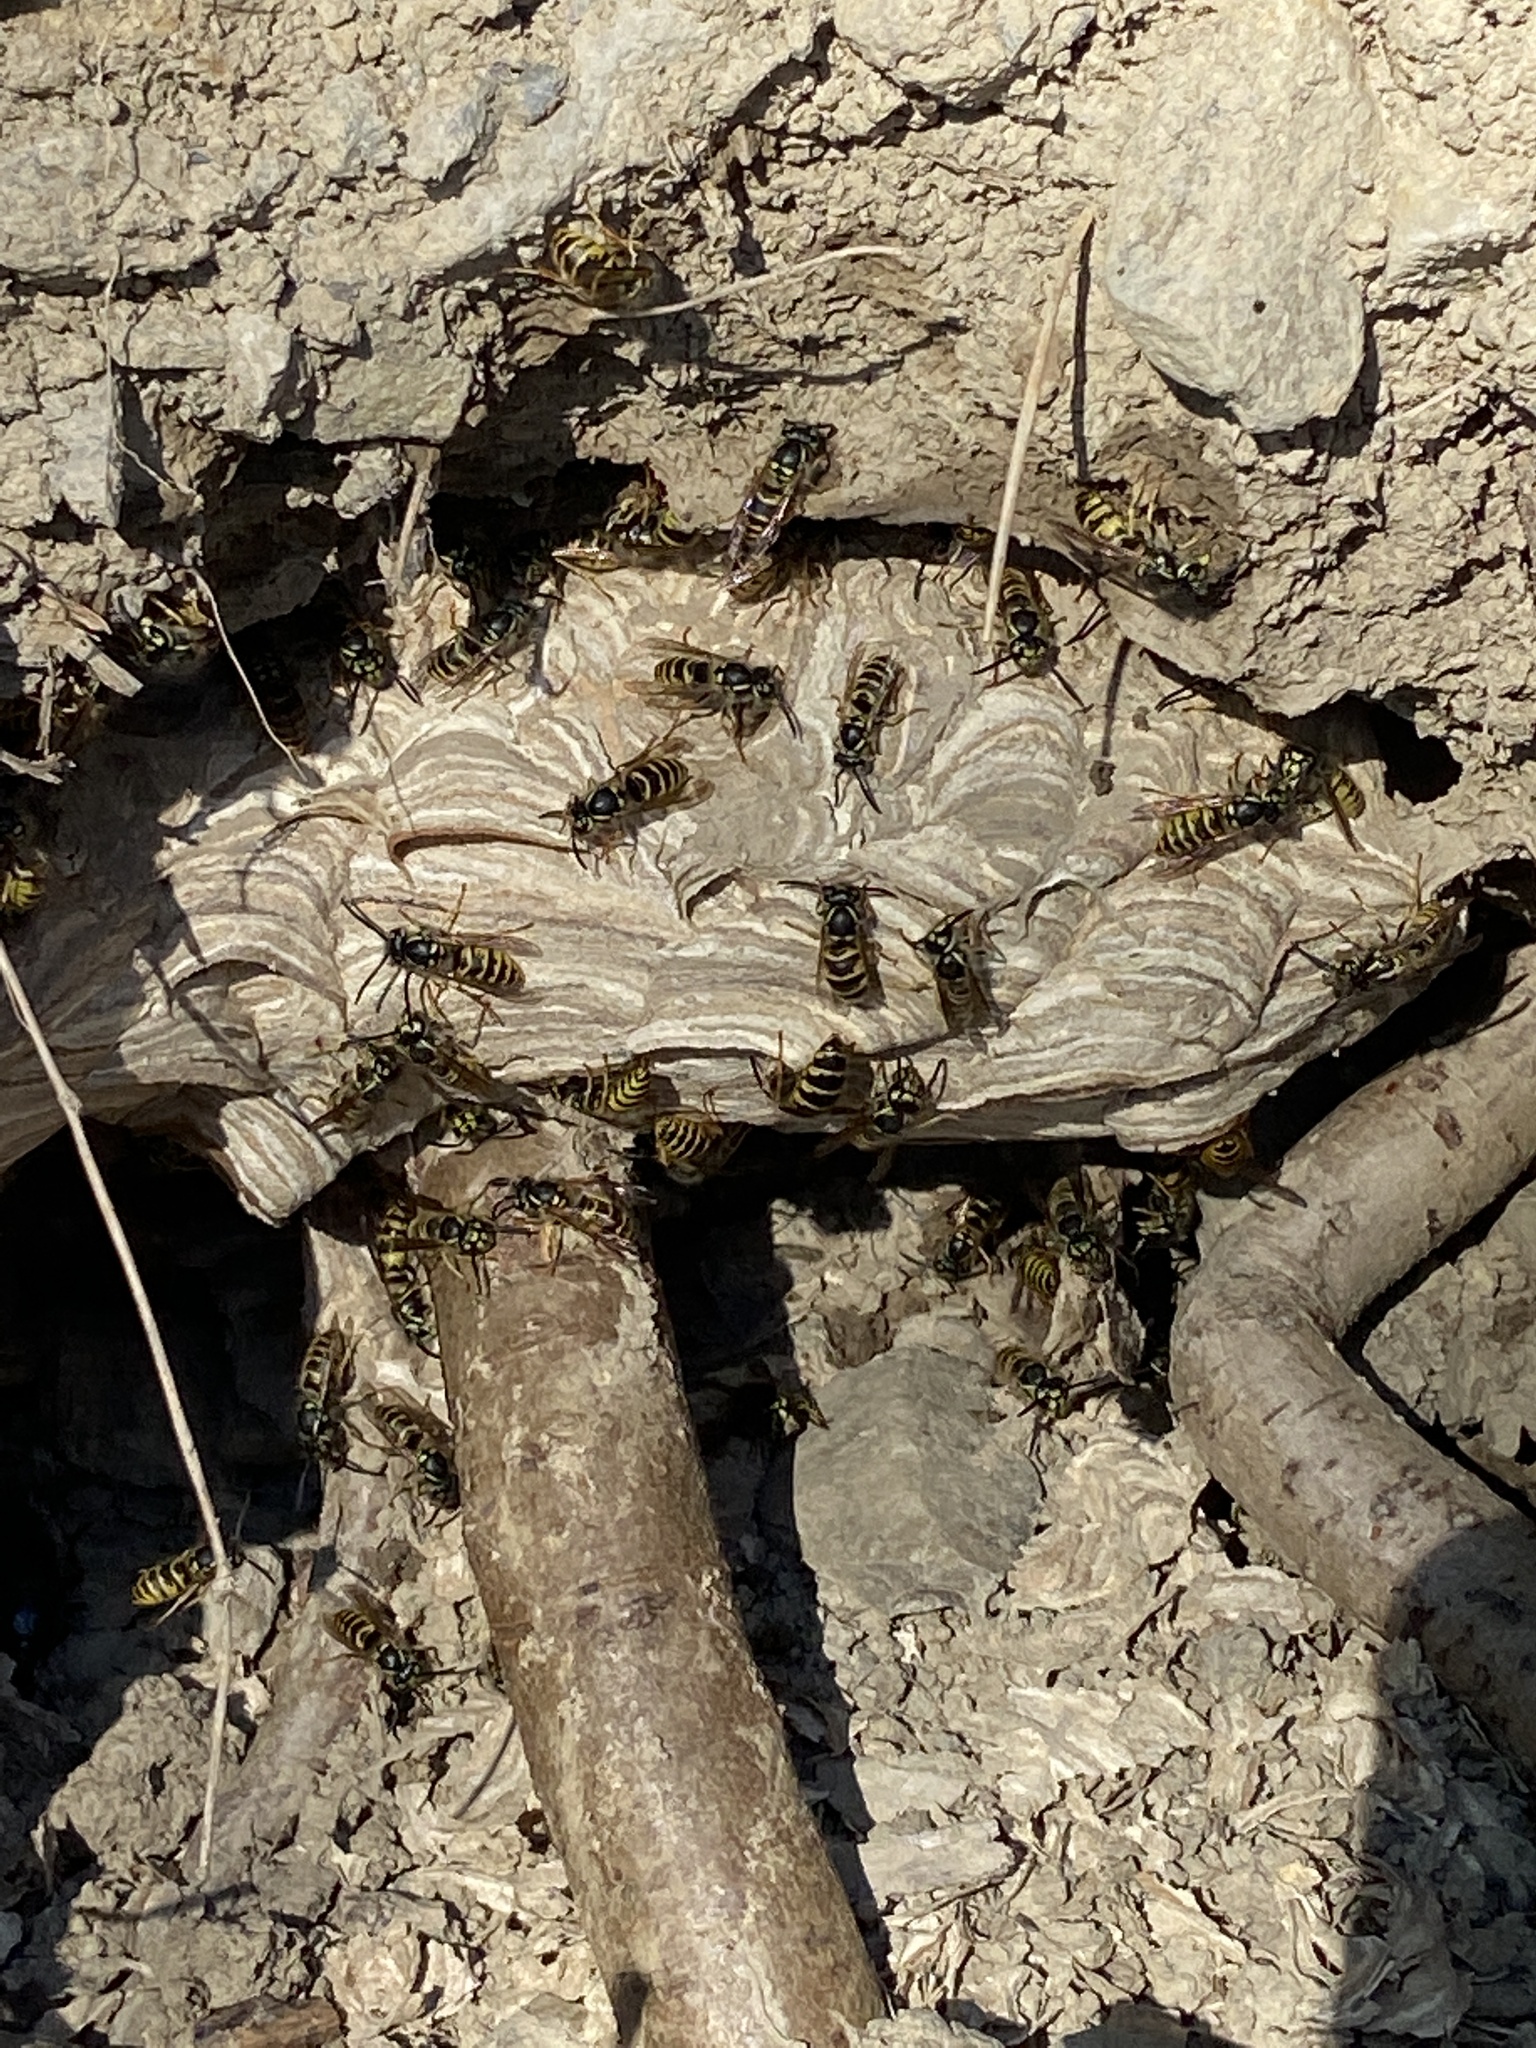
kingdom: Animalia
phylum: Arthropoda
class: Insecta
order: Hymenoptera
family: Vespidae
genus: Vespula
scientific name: Vespula vulgaris
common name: Common wasp
